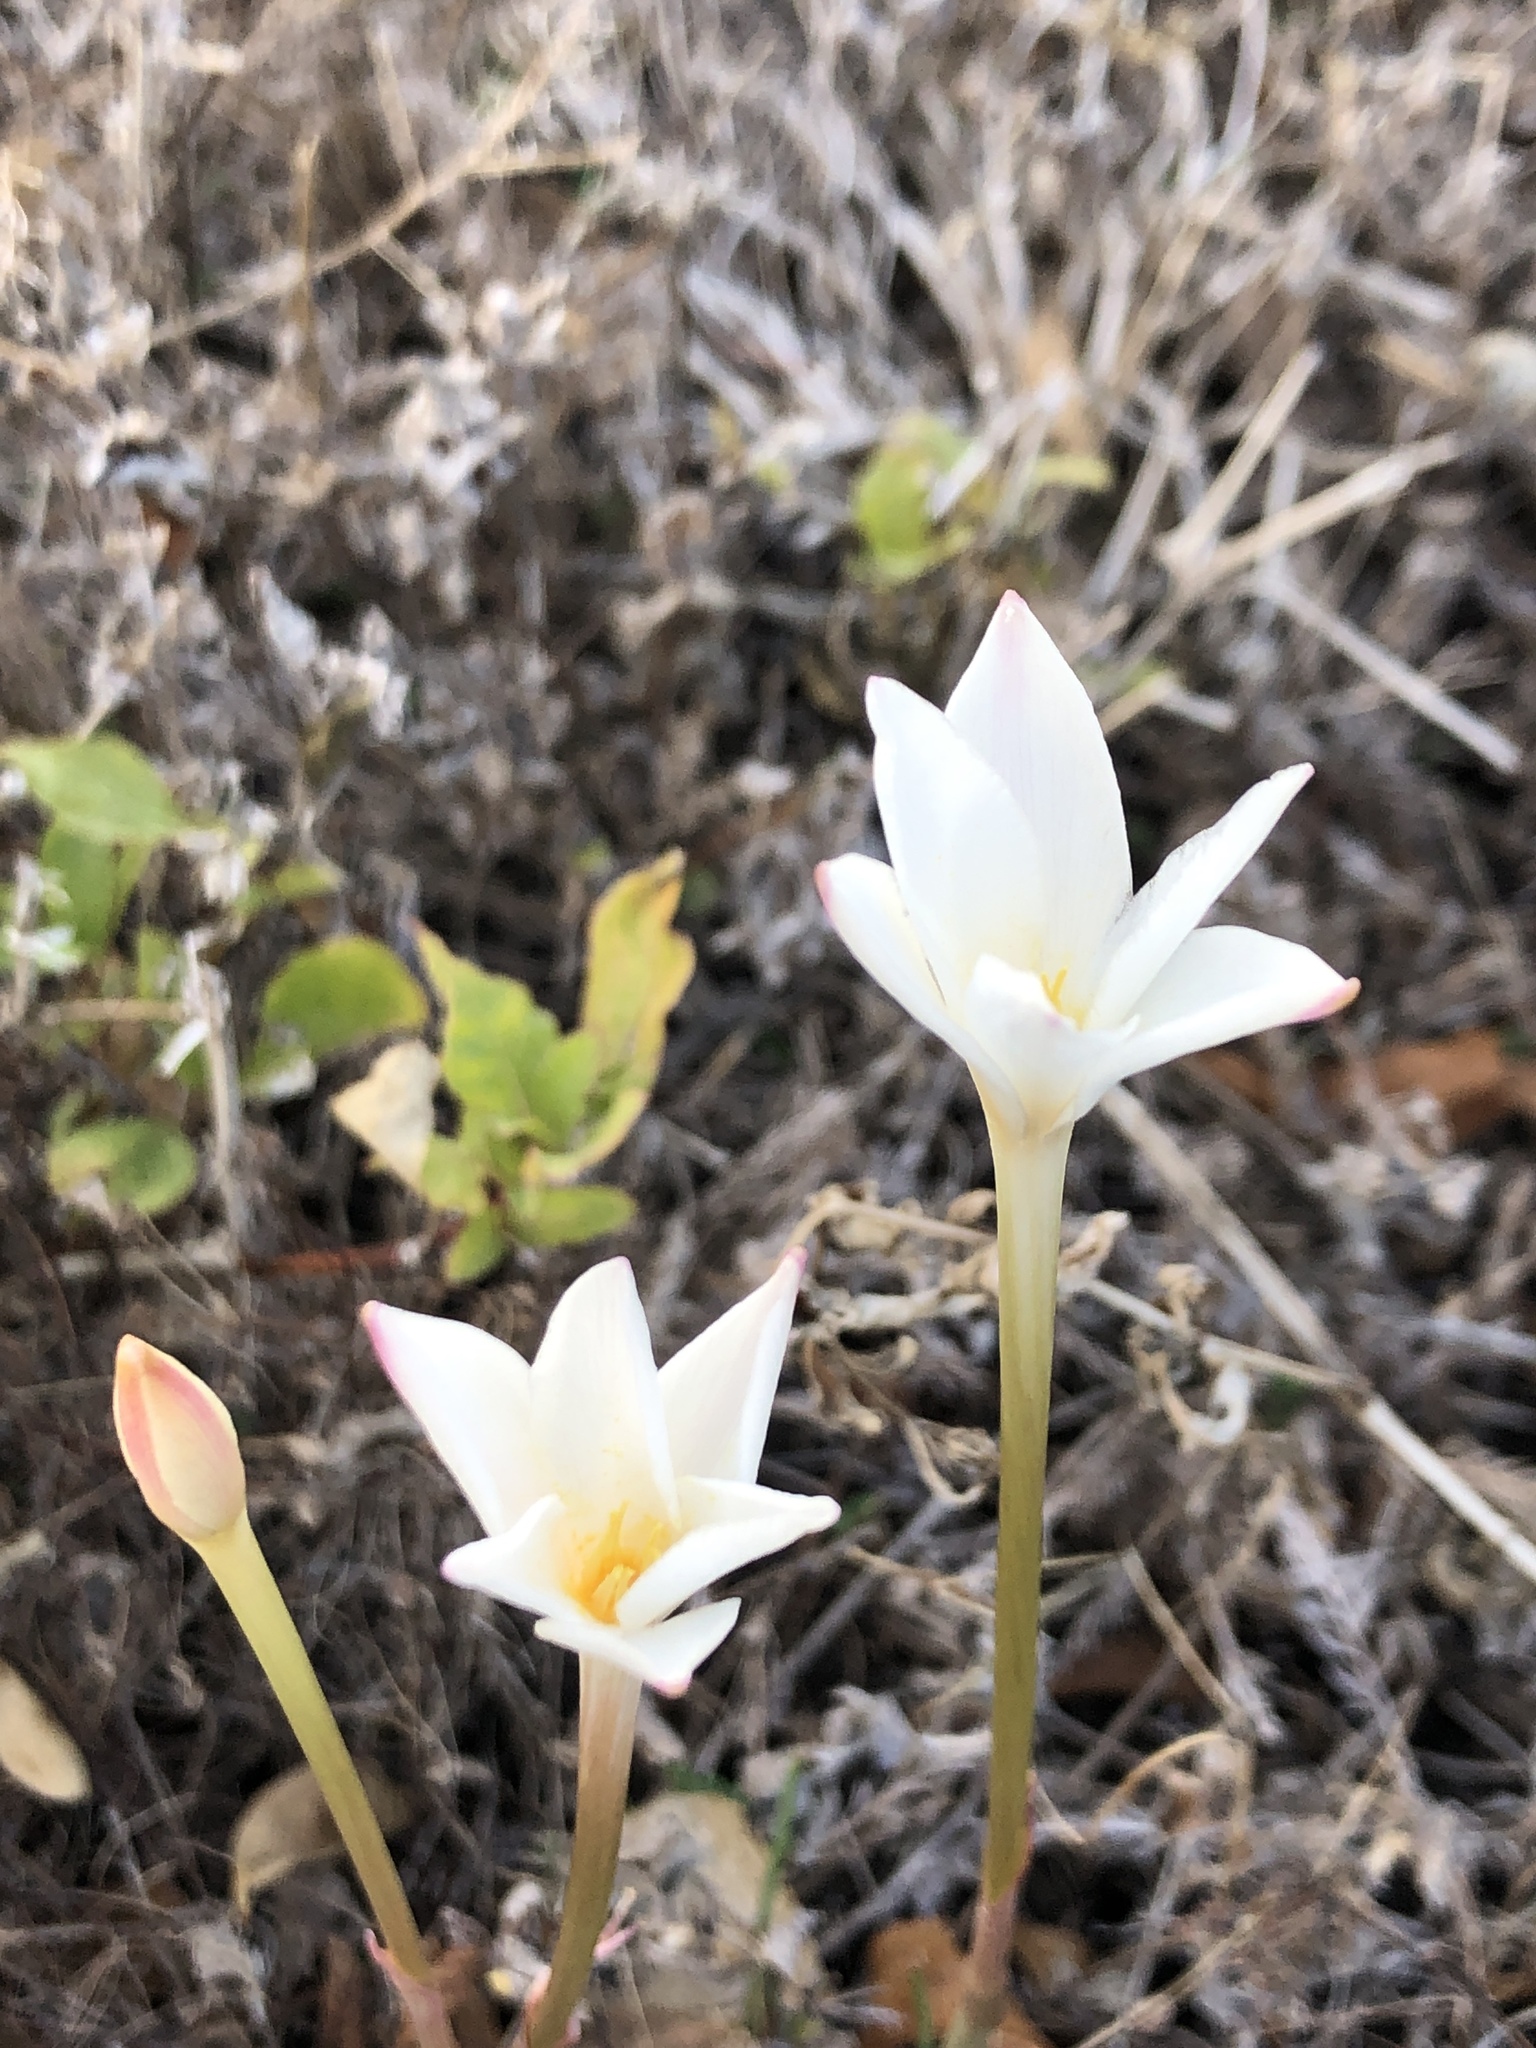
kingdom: Plantae
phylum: Tracheophyta
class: Liliopsida
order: Asparagales
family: Amaryllidaceae
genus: Zephyranthes
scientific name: Zephyranthes chlorosolen
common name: Evening rain-lily
